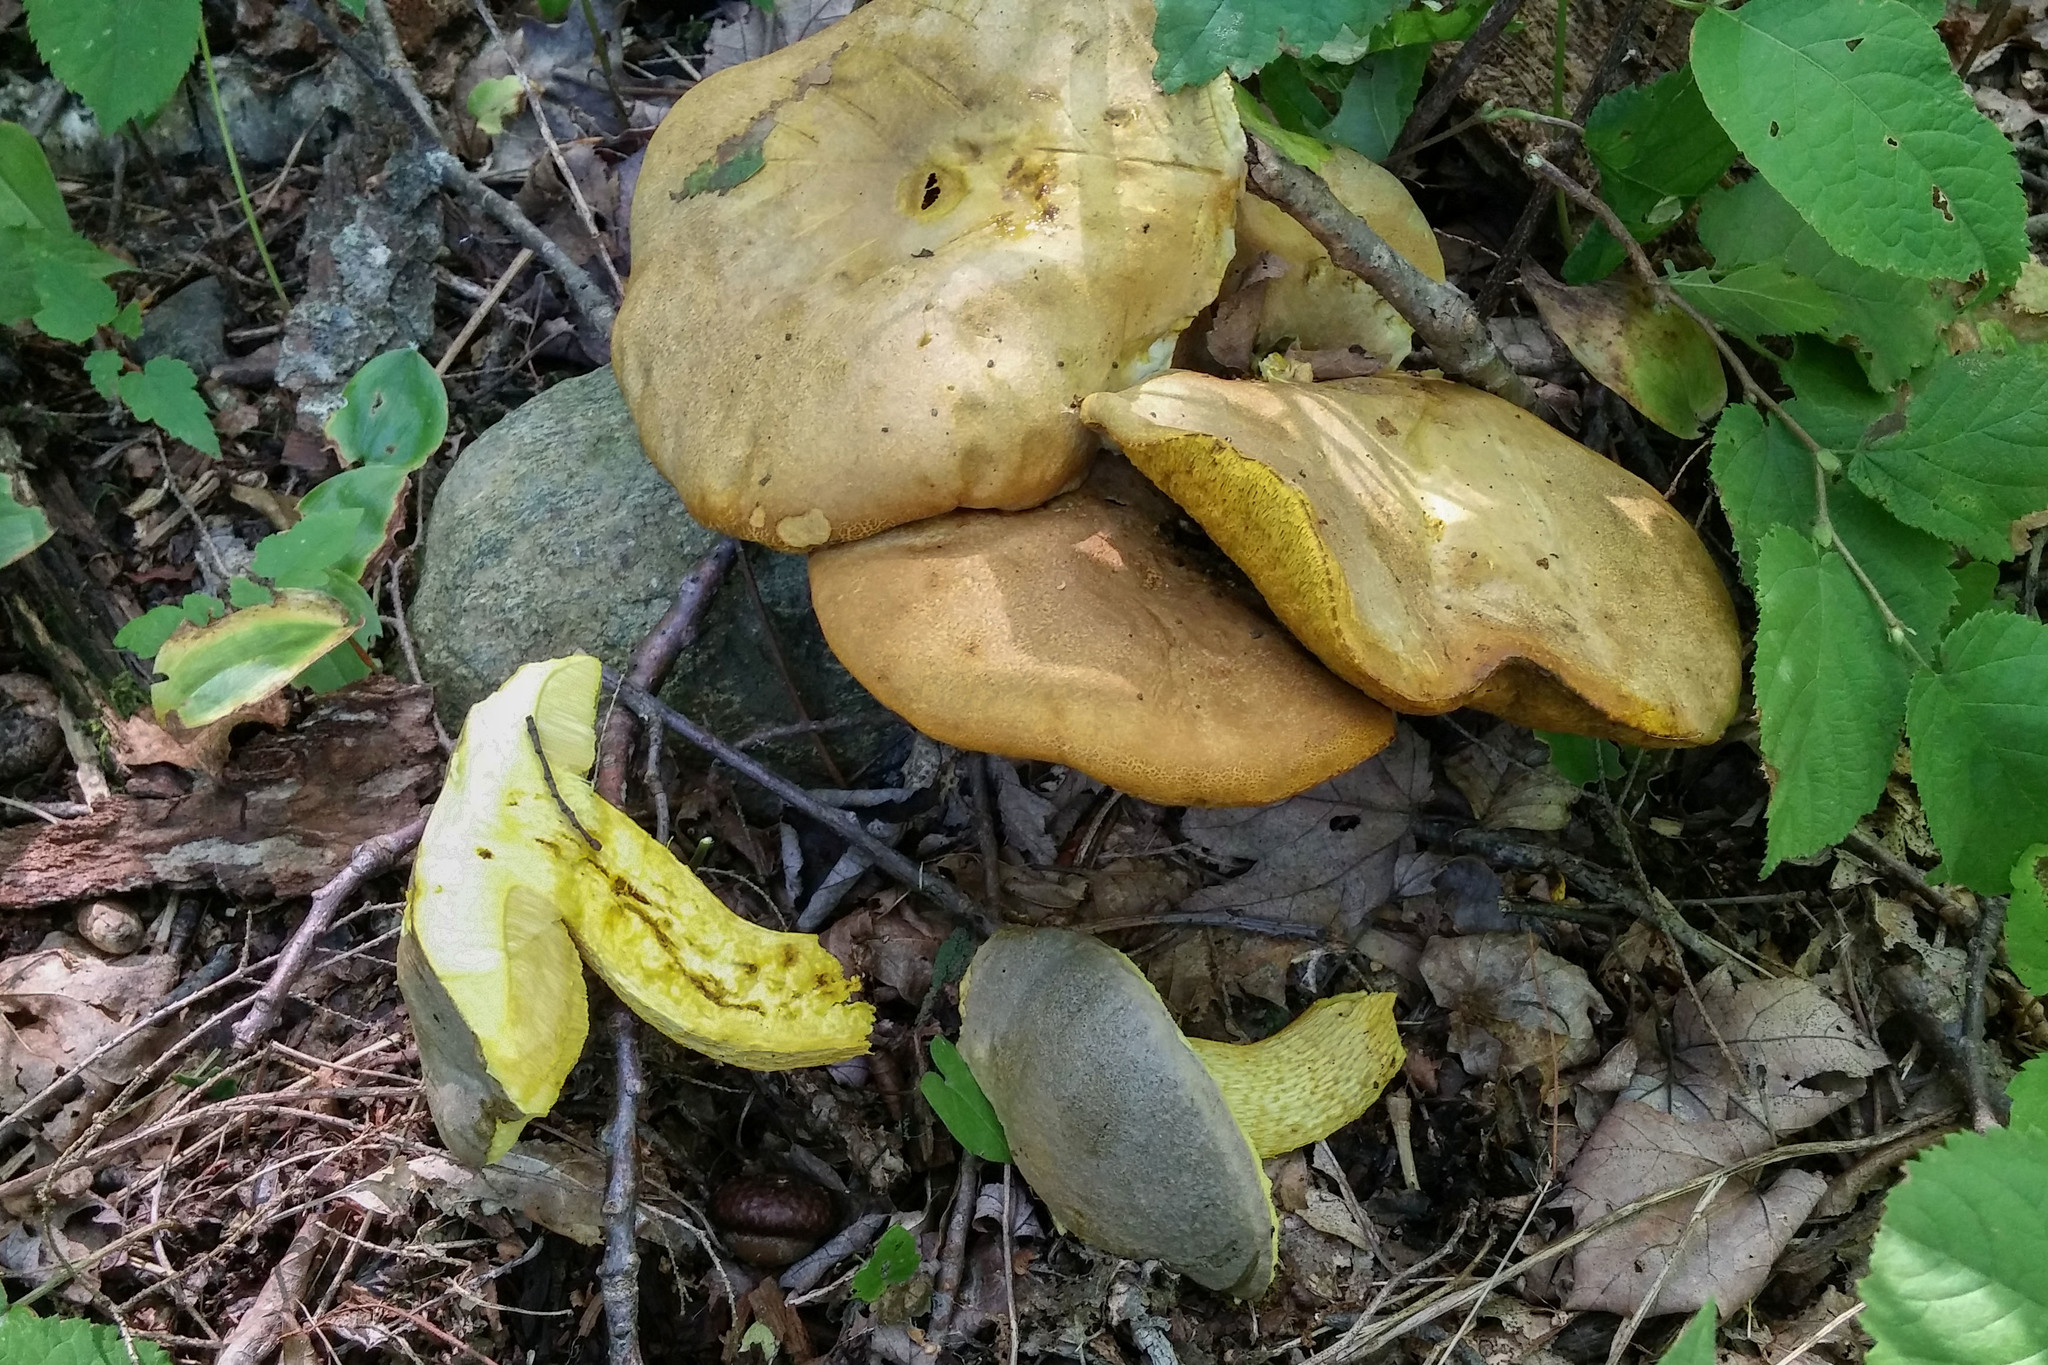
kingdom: Fungi
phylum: Basidiomycota
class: Agaricomycetes
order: Boletales
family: Boletaceae
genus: Retiboletus
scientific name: Retiboletus ornatipes
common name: Ornate-stalked bolete
